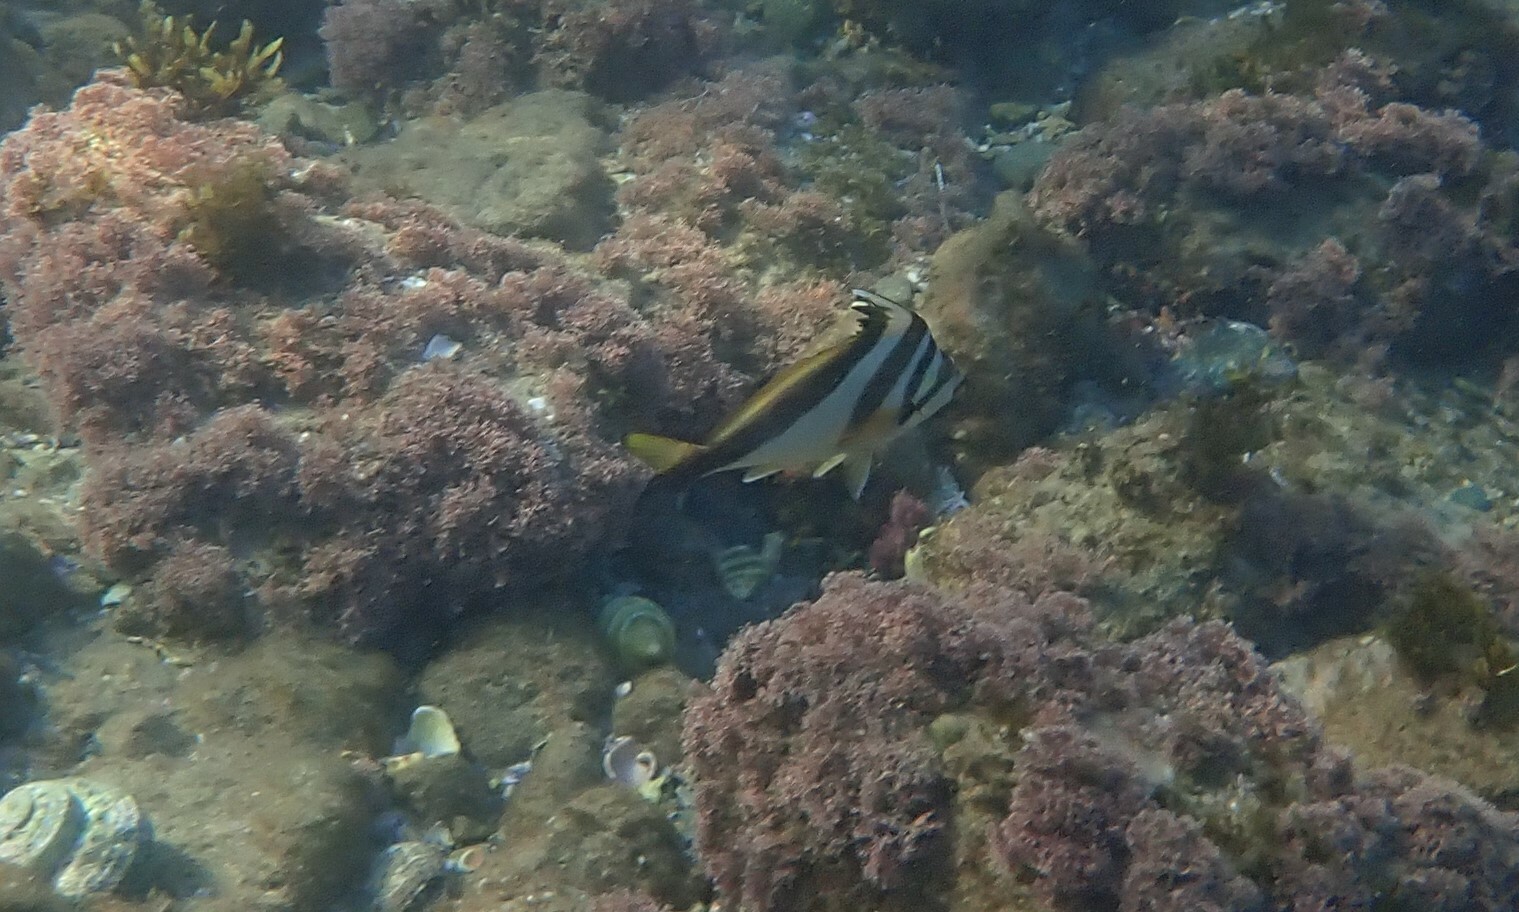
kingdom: Animalia
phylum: Chordata
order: Perciformes
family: Cheilodactylidae
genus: Cheilodactylus
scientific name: Cheilodactylus vestitus
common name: Crested morwong
